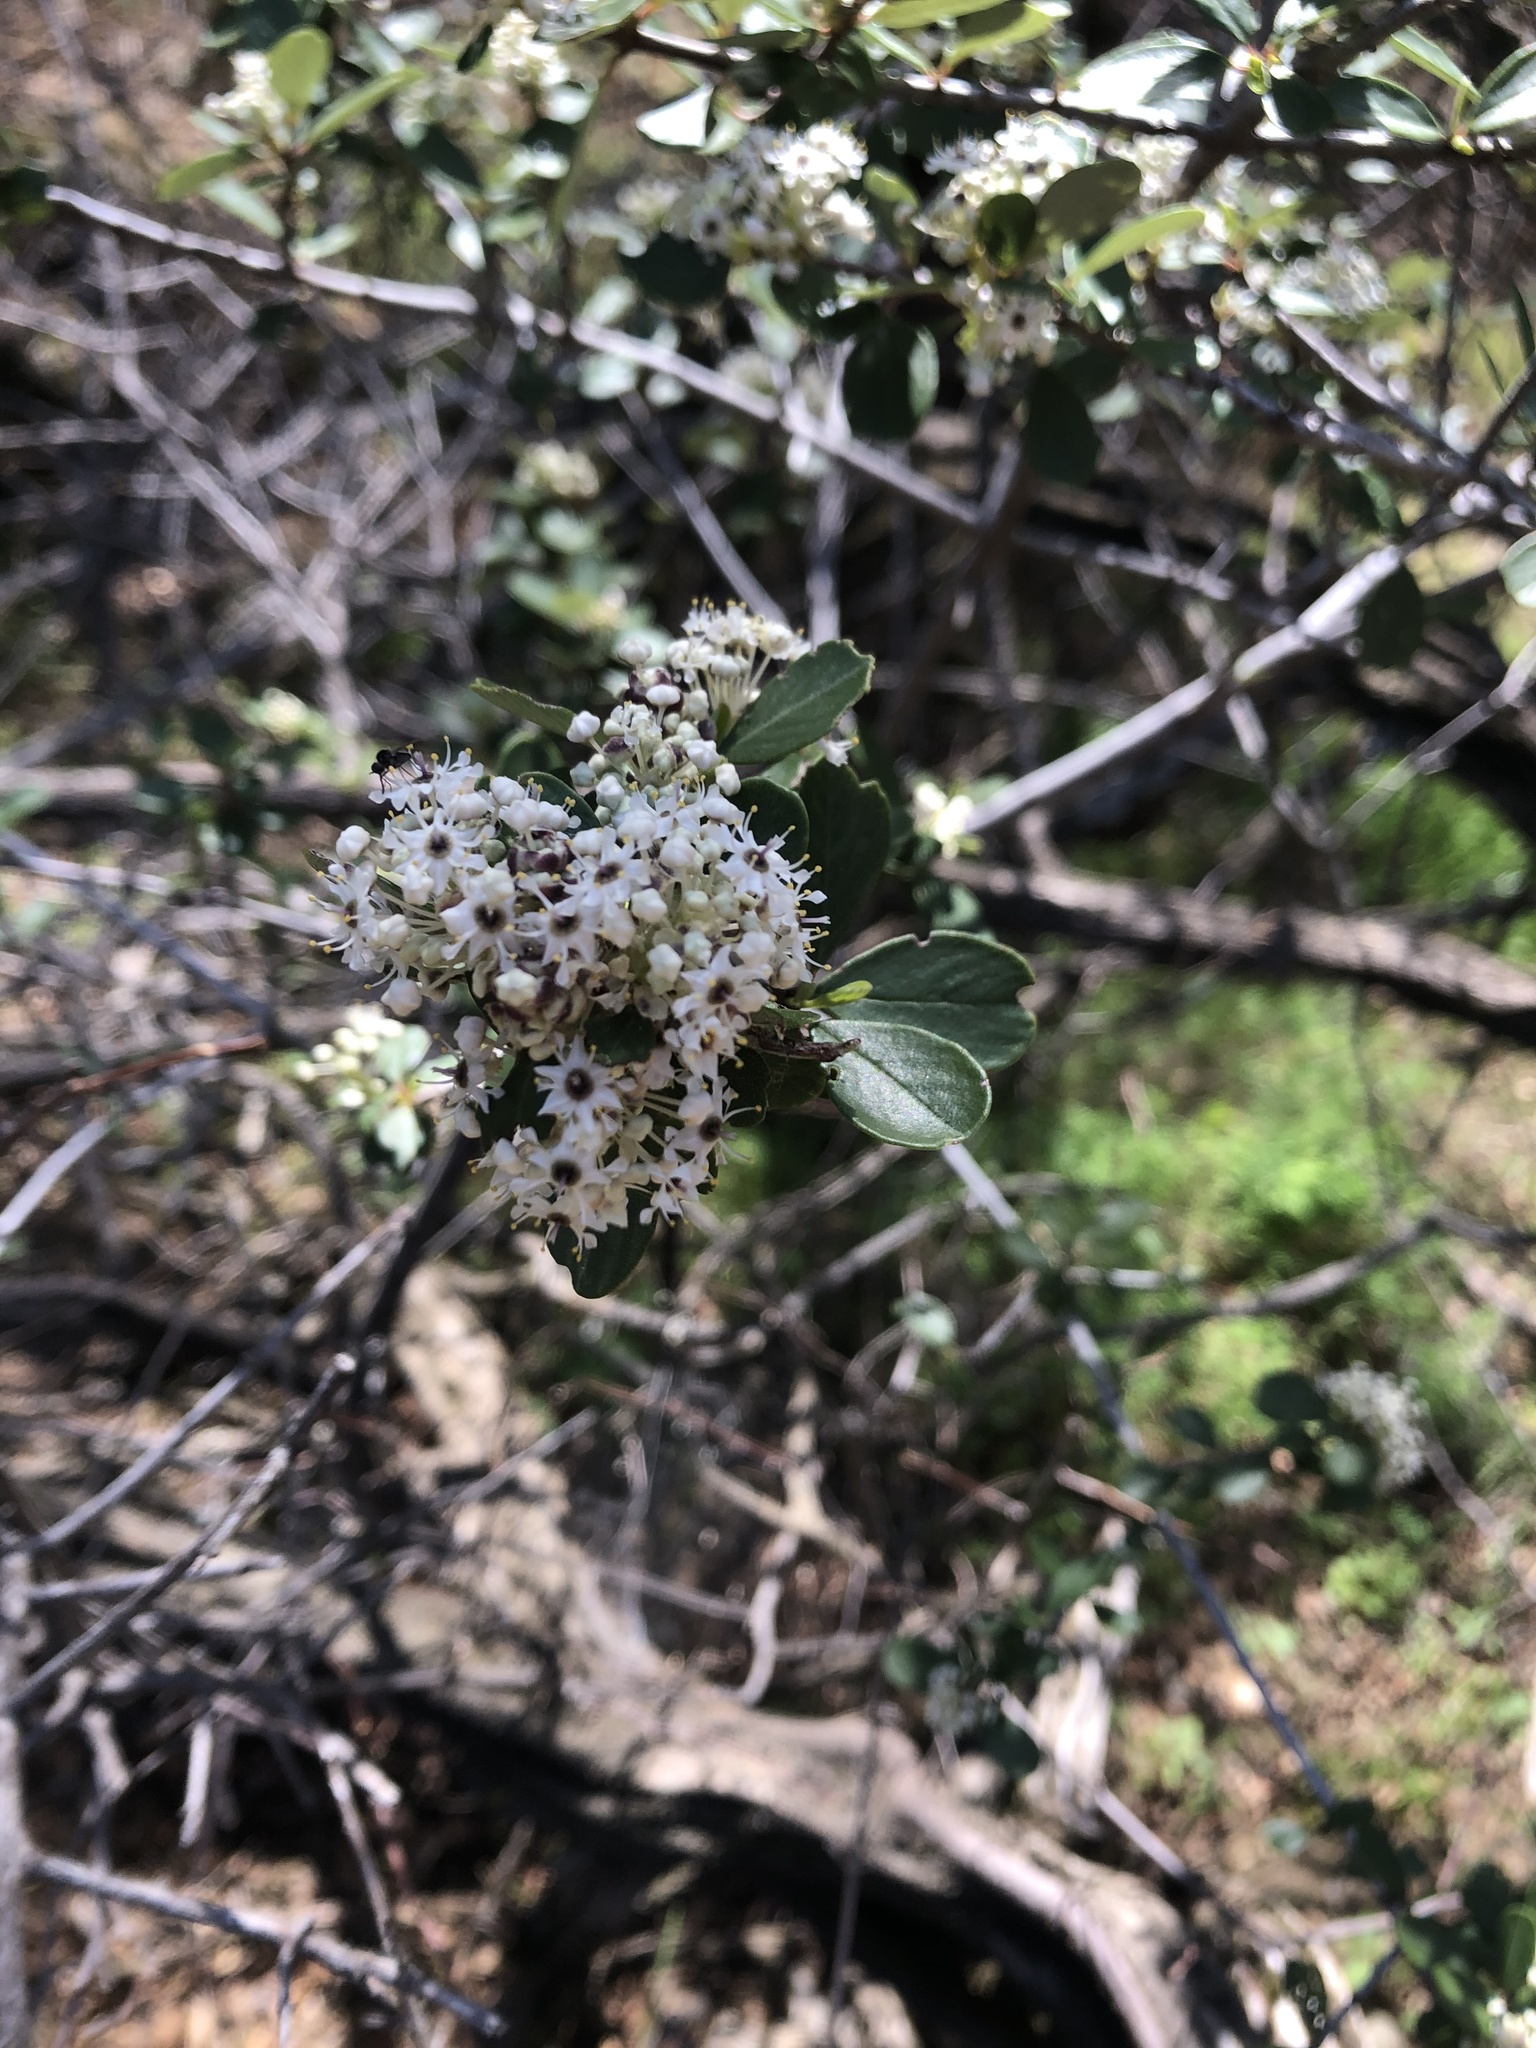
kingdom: Plantae
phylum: Tracheophyta
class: Magnoliopsida
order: Rosales
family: Rhamnaceae
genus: Ceanothus
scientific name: Ceanothus cuneatus
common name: Cuneate ceanothus
